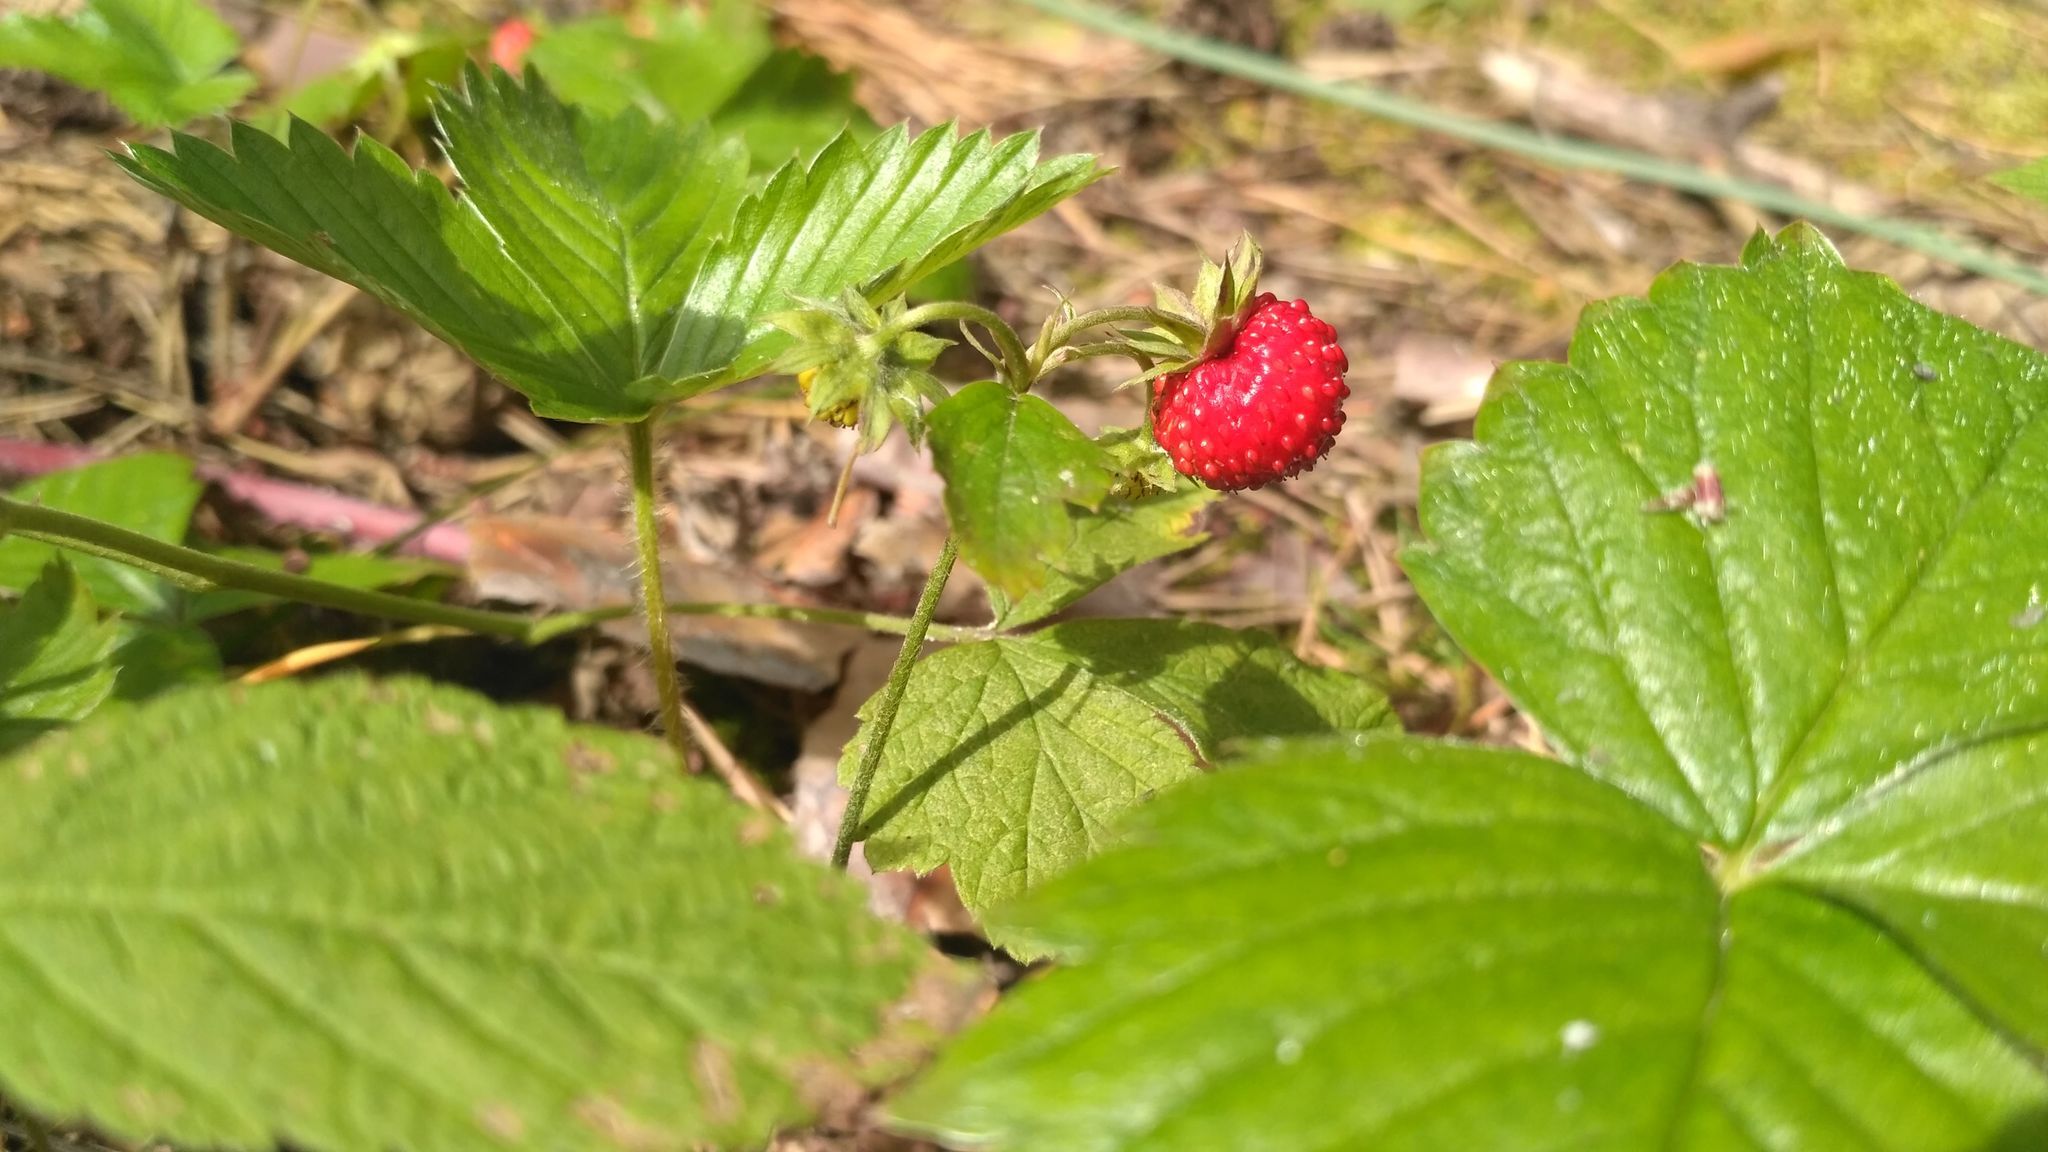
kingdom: Plantae
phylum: Tracheophyta
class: Magnoliopsida
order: Rosales
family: Rosaceae
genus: Fragaria
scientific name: Fragaria vesca
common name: Wild strawberry
